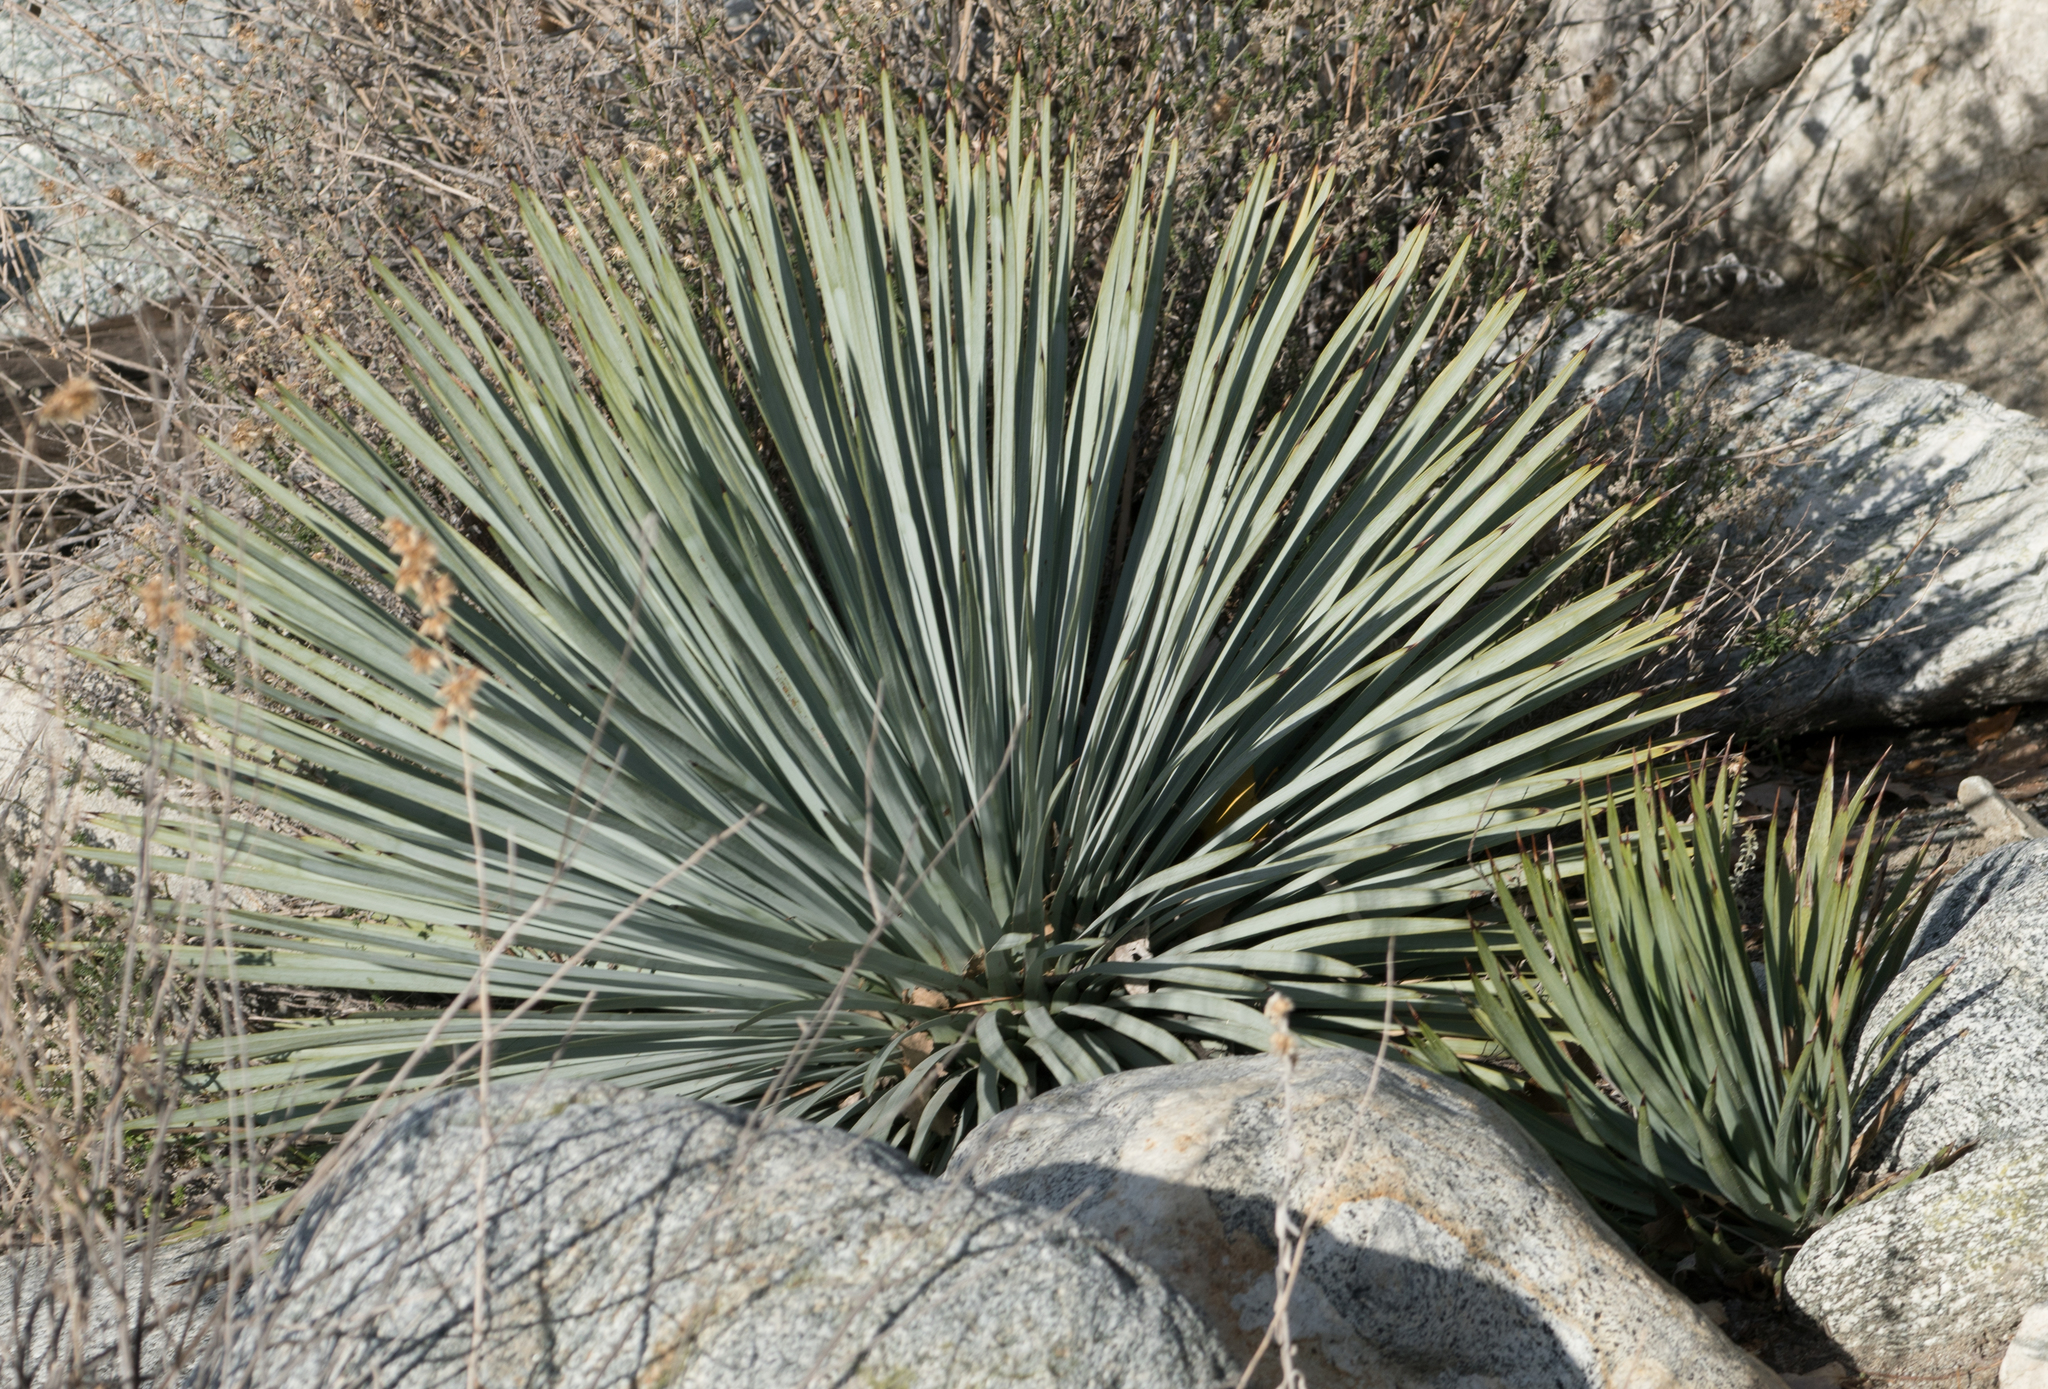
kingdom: Plantae
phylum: Tracheophyta
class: Liliopsida
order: Asparagales
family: Asparagaceae
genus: Hesperoyucca
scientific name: Hesperoyucca whipplei
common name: Our lord's-candle
